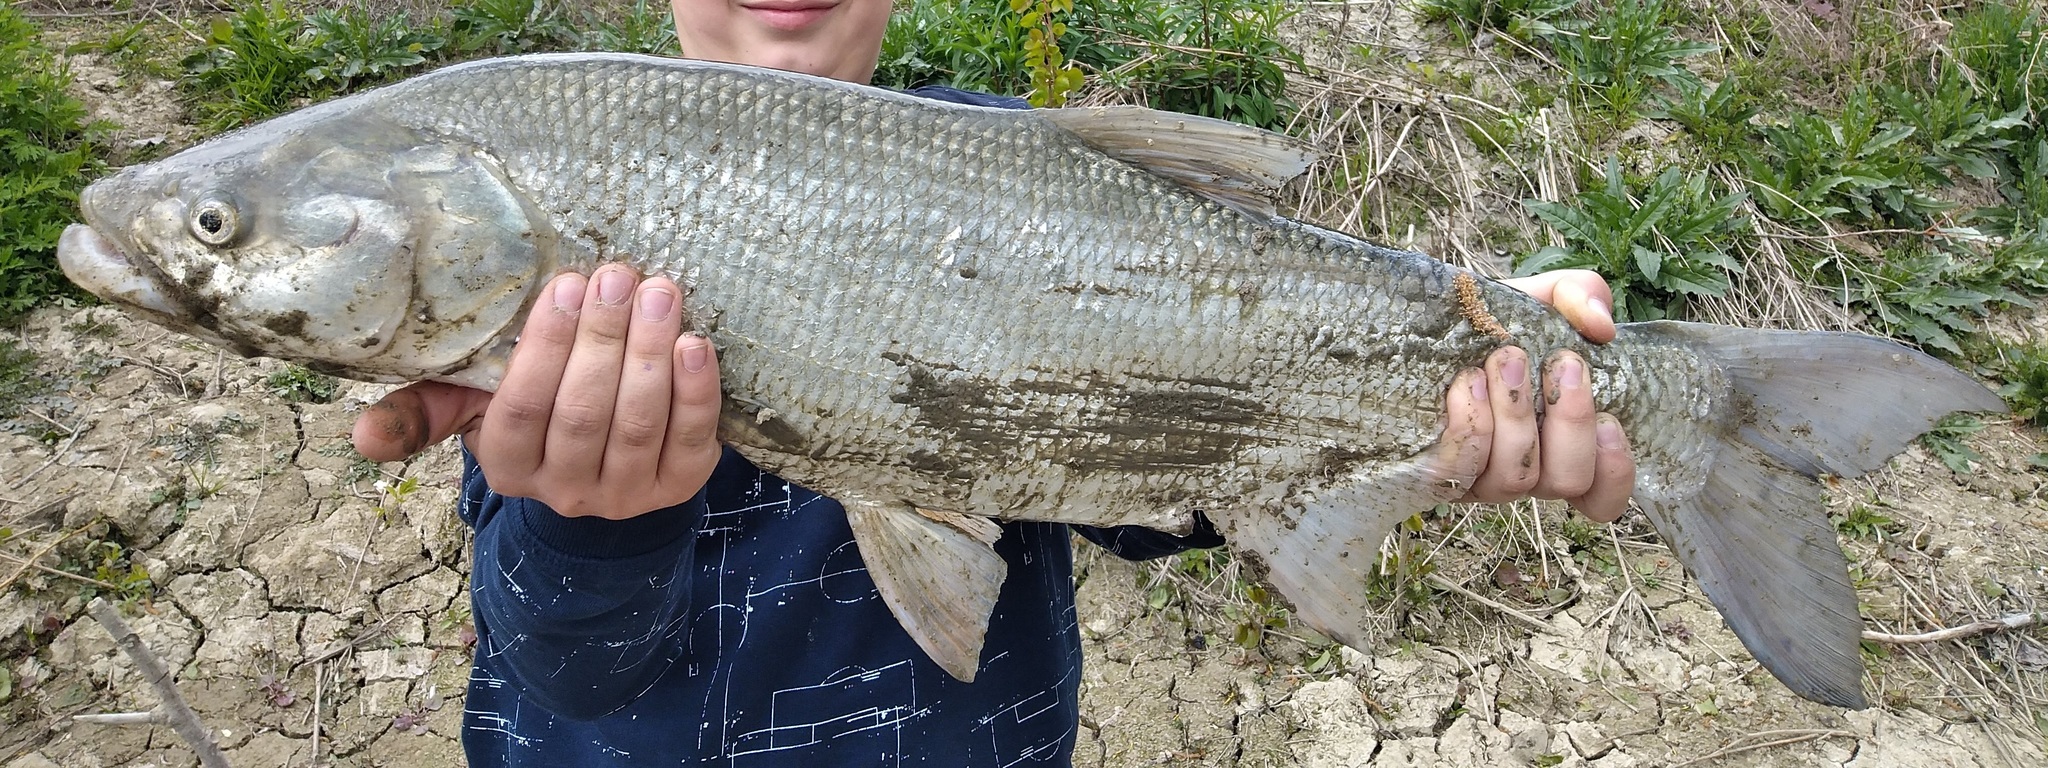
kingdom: Animalia
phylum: Chordata
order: Cypriniformes
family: Cyprinidae
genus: Leuciscus
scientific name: Leuciscus aspius
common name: Asp
